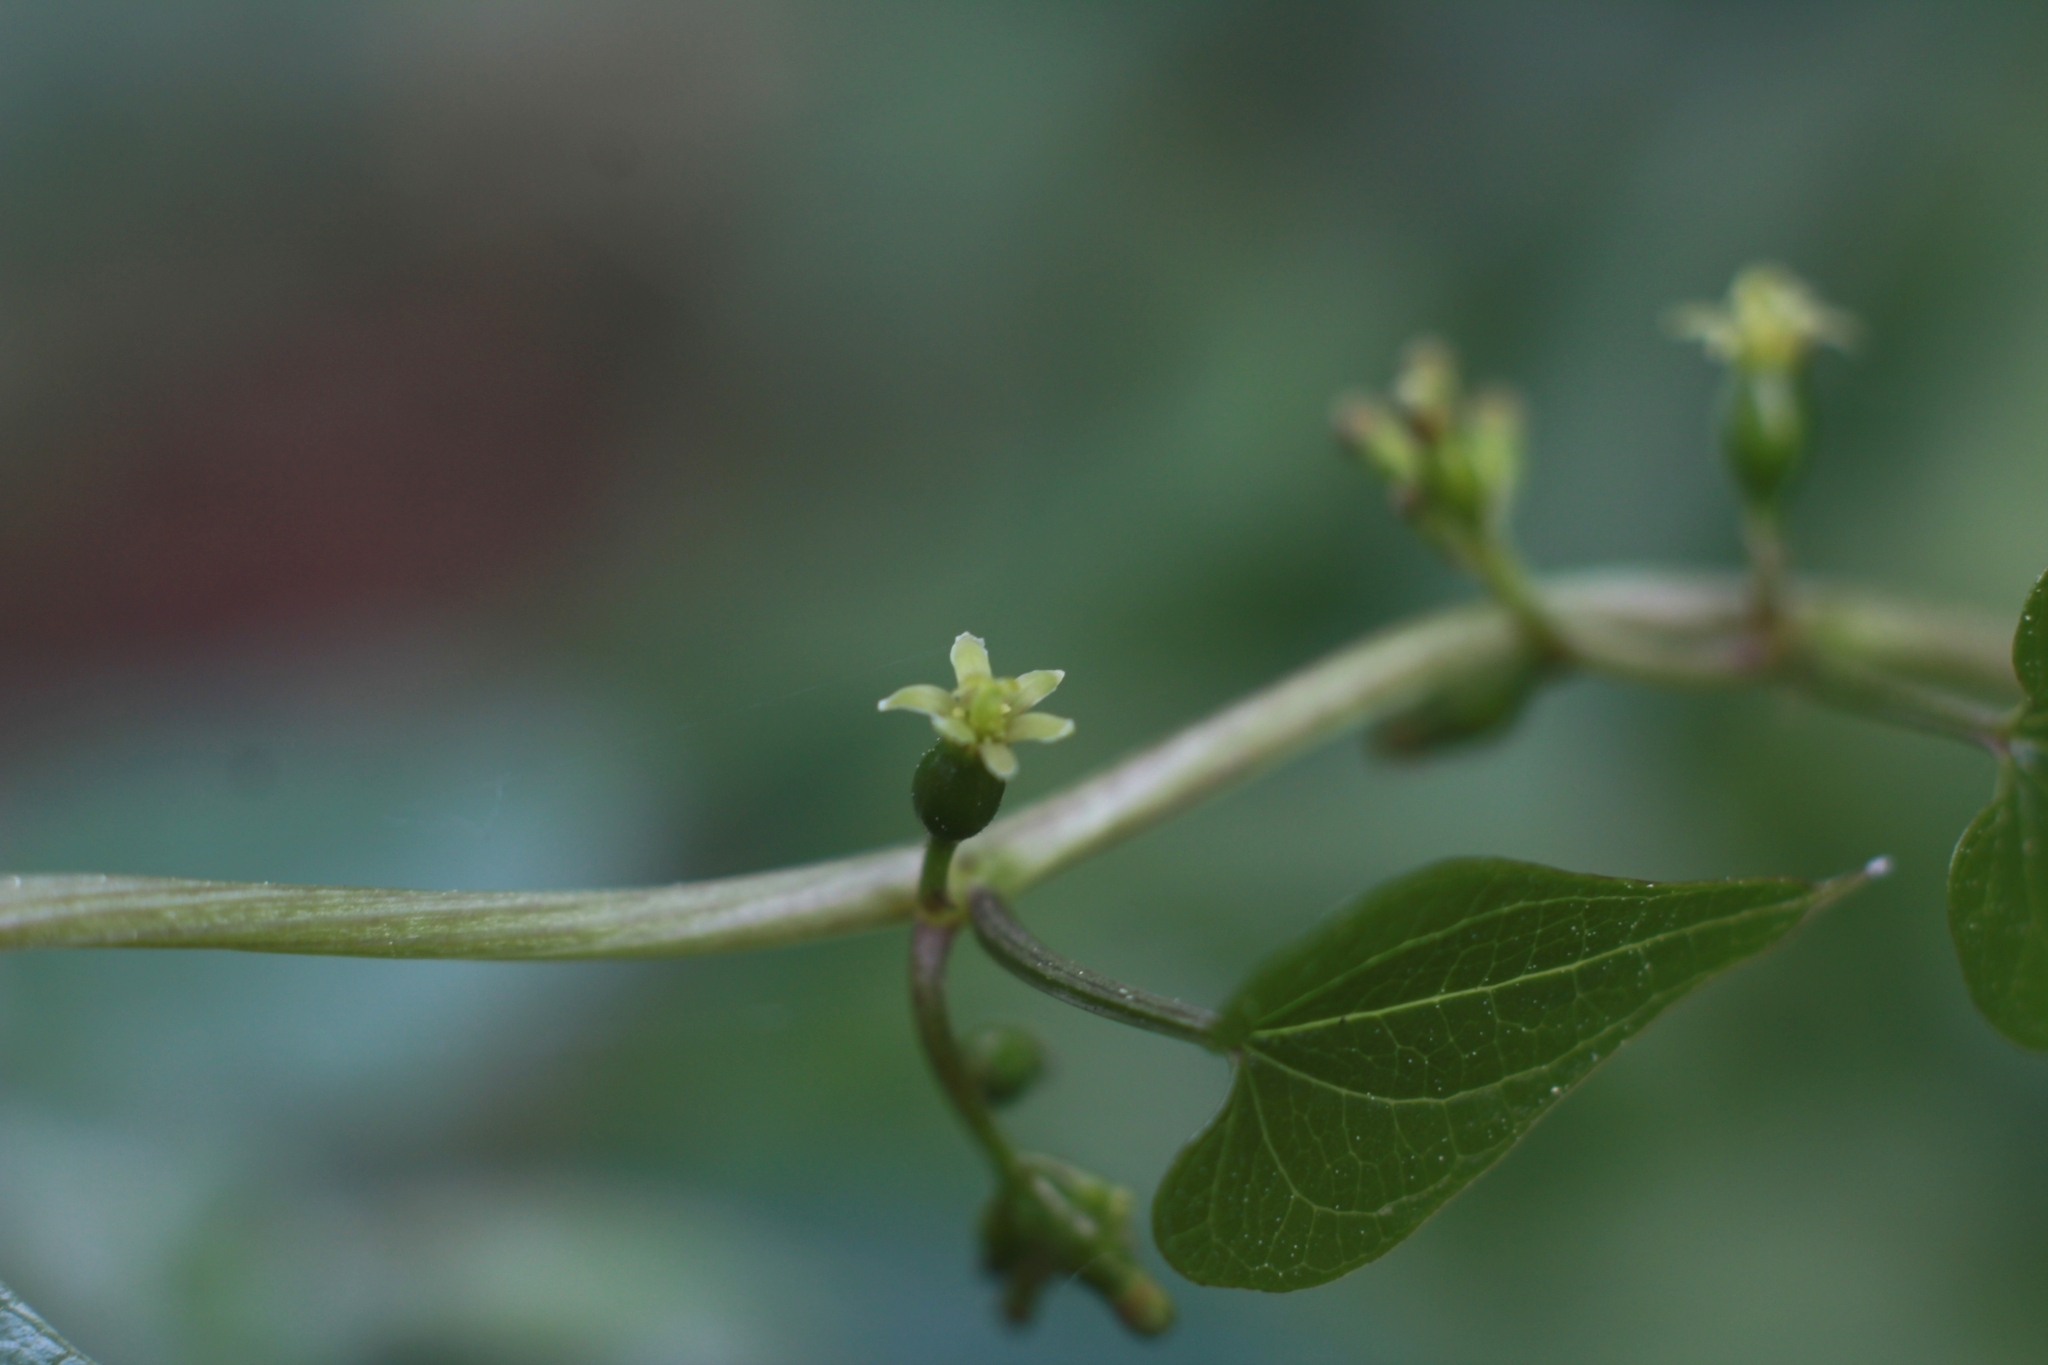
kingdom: Plantae
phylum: Tracheophyta
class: Liliopsida
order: Dioscoreales
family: Dioscoreaceae
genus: Dioscorea
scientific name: Dioscorea communis
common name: Black-bindweed
